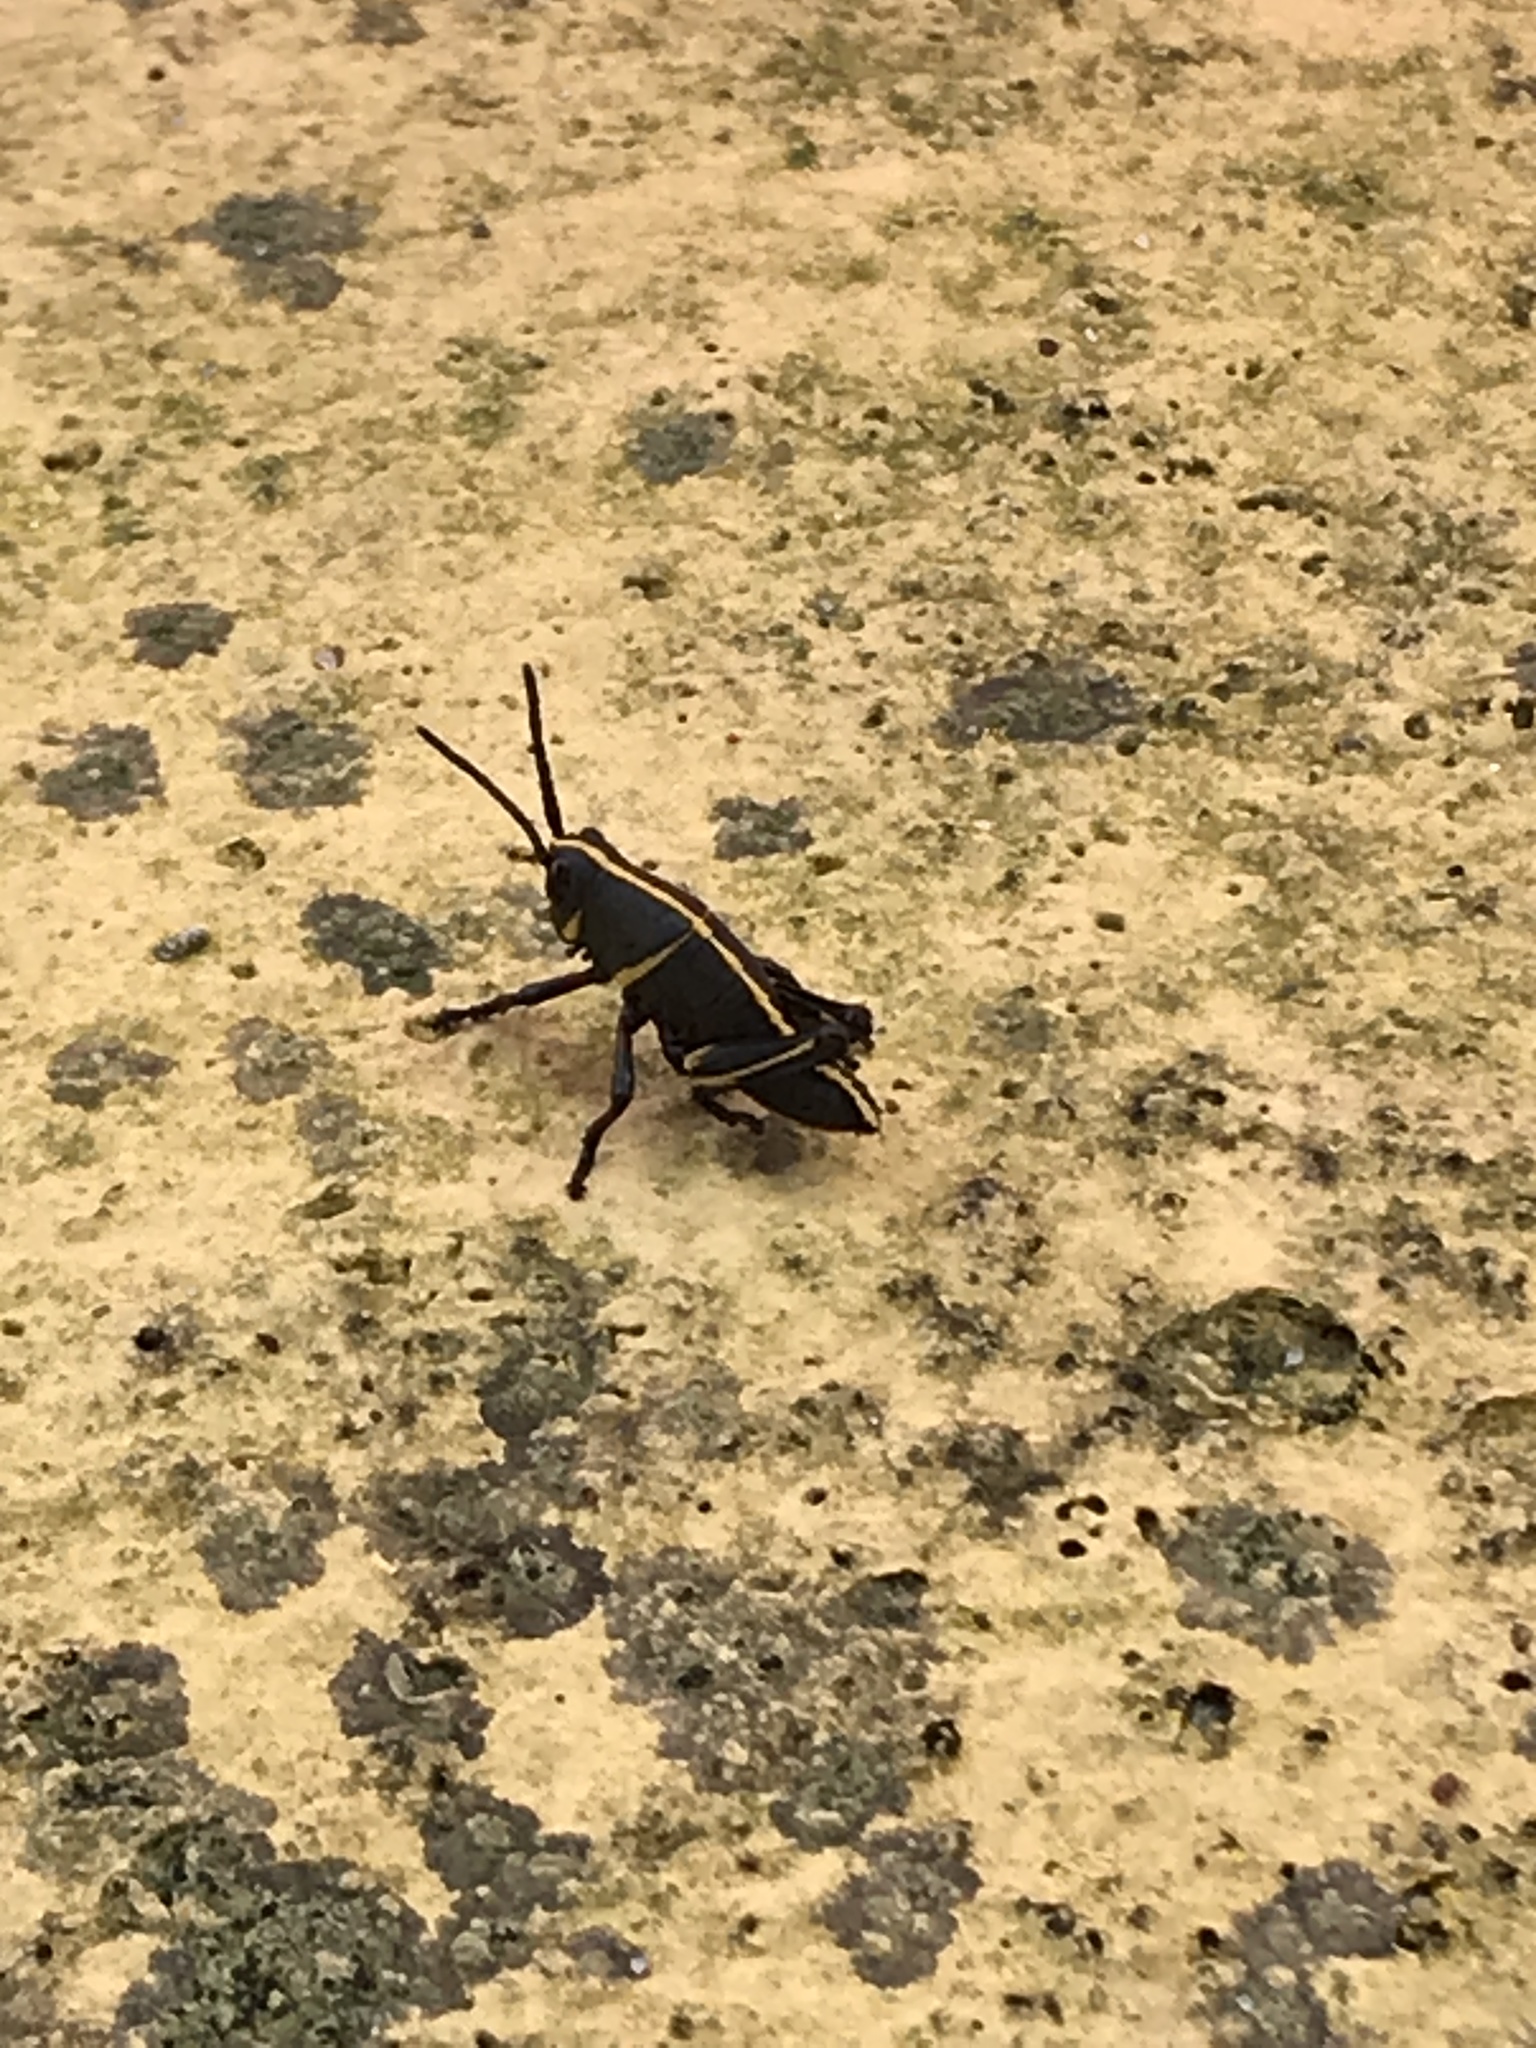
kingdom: Animalia
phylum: Arthropoda
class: Insecta
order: Orthoptera
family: Romaleidae
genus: Romalea
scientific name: Romalea microptera
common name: Eastern lubber grasshopper
